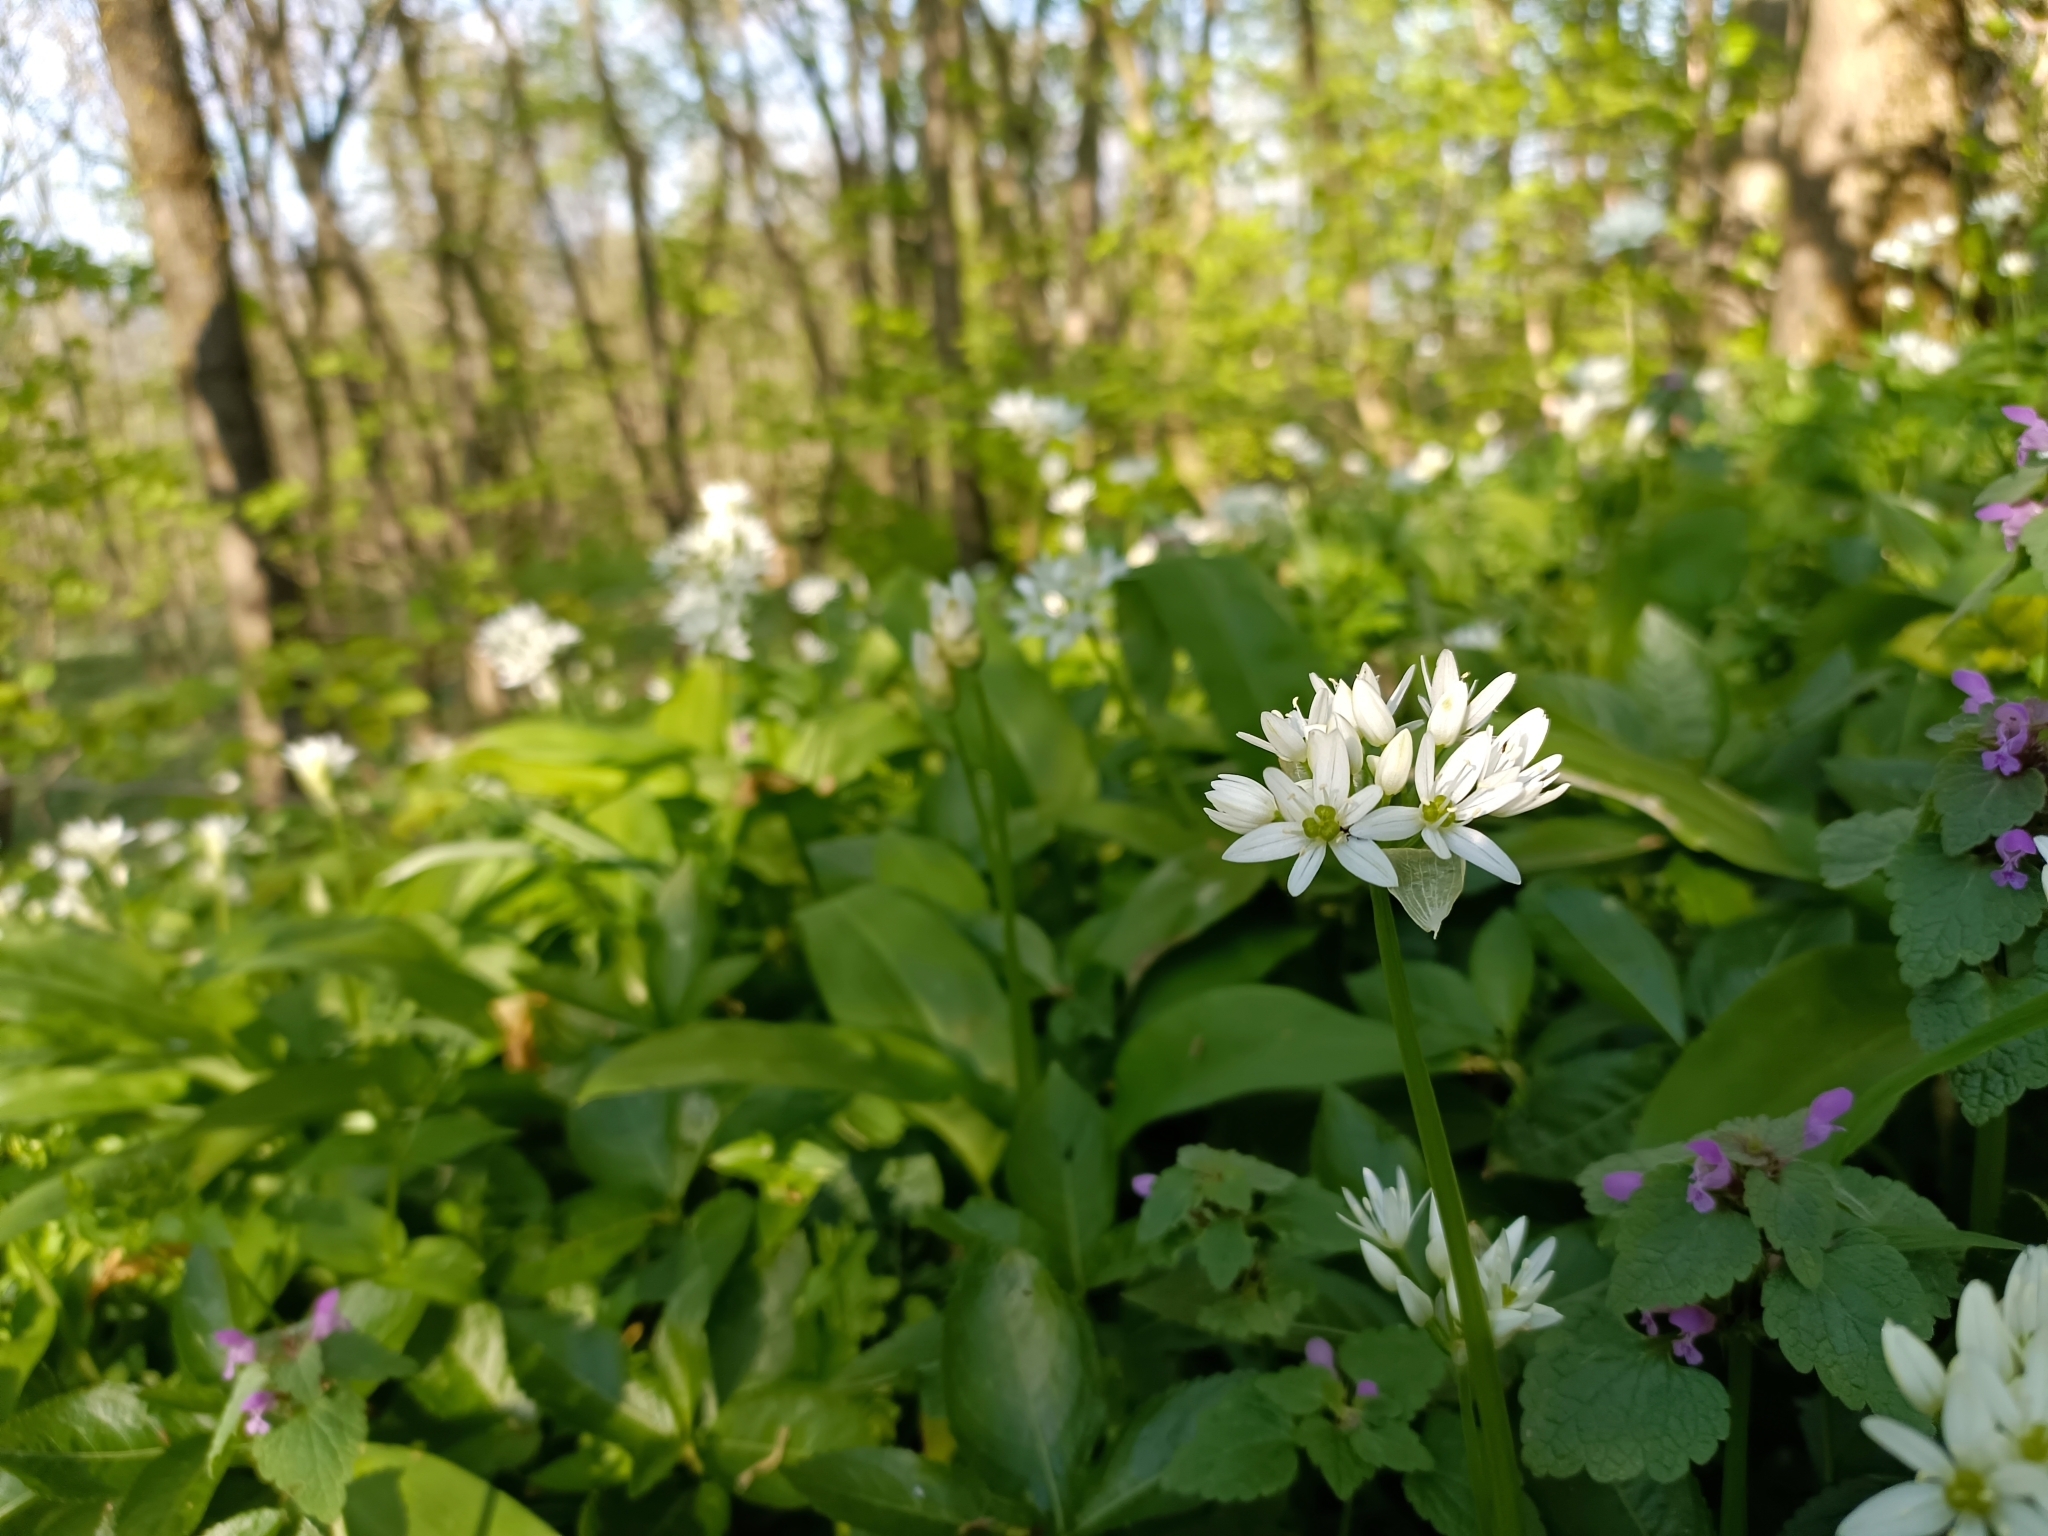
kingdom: Plantae
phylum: Tracheophyta
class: Liliopsida
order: Asparagales
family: Amaryllidaceae
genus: Allium
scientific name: Allium ursinum
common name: Ramsons
